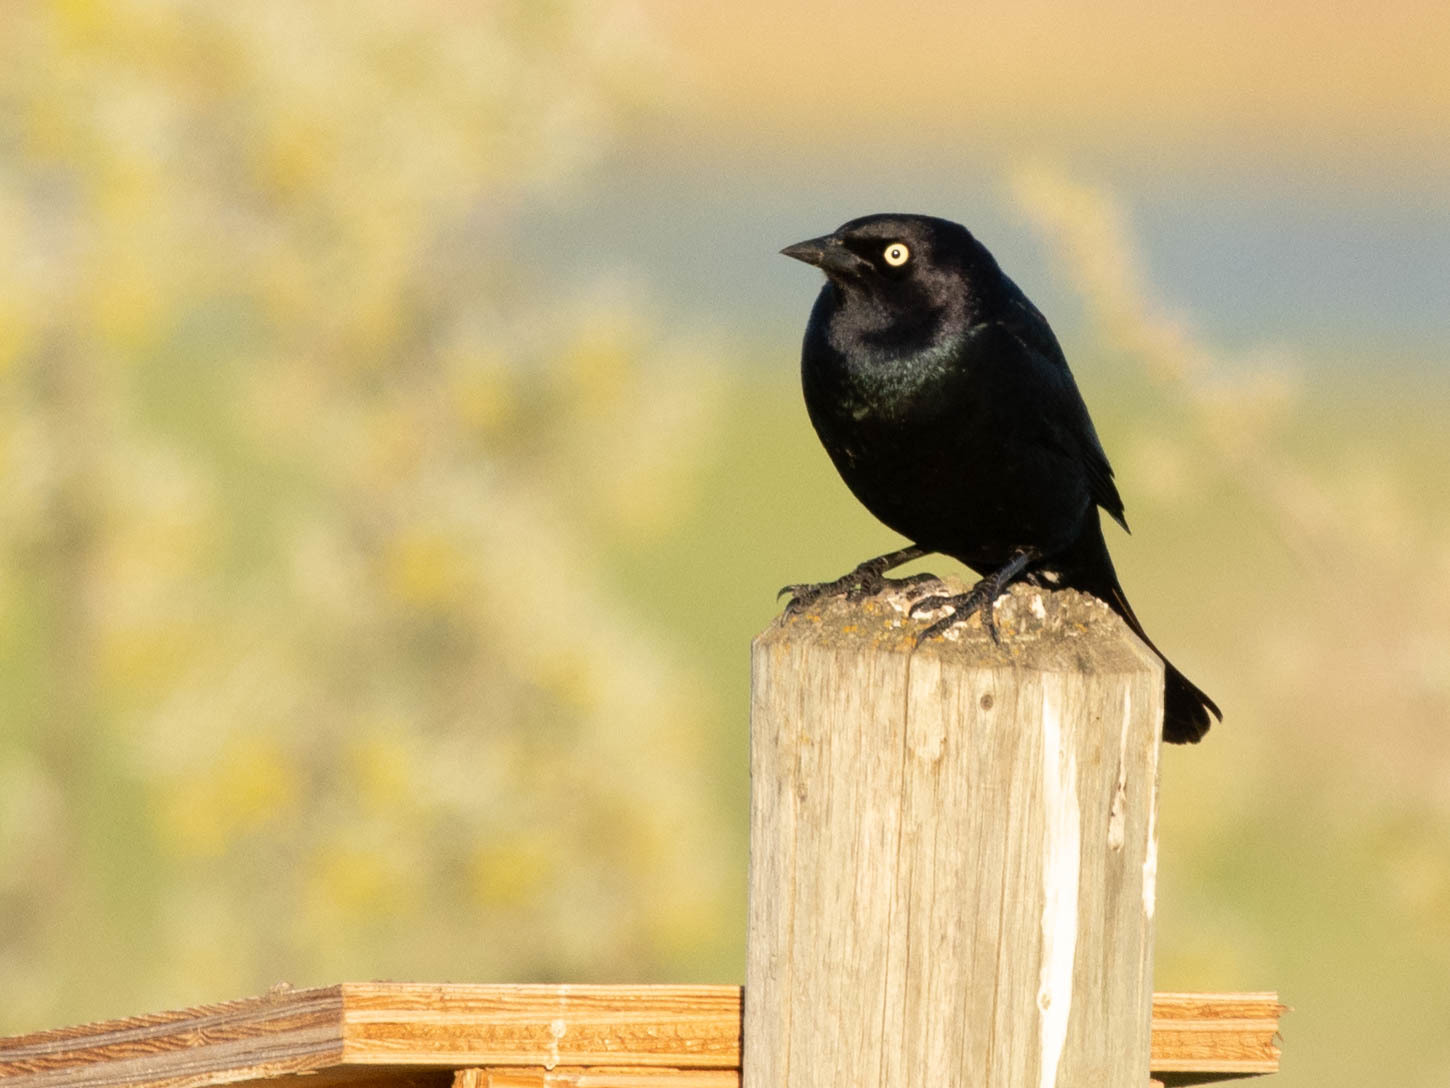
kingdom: Animalia
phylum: Chordata
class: Aves
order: Passeriformes
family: Icteridae
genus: Euphagus
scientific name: Euphagus cyanocephalus
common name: Brewer's blackbird
